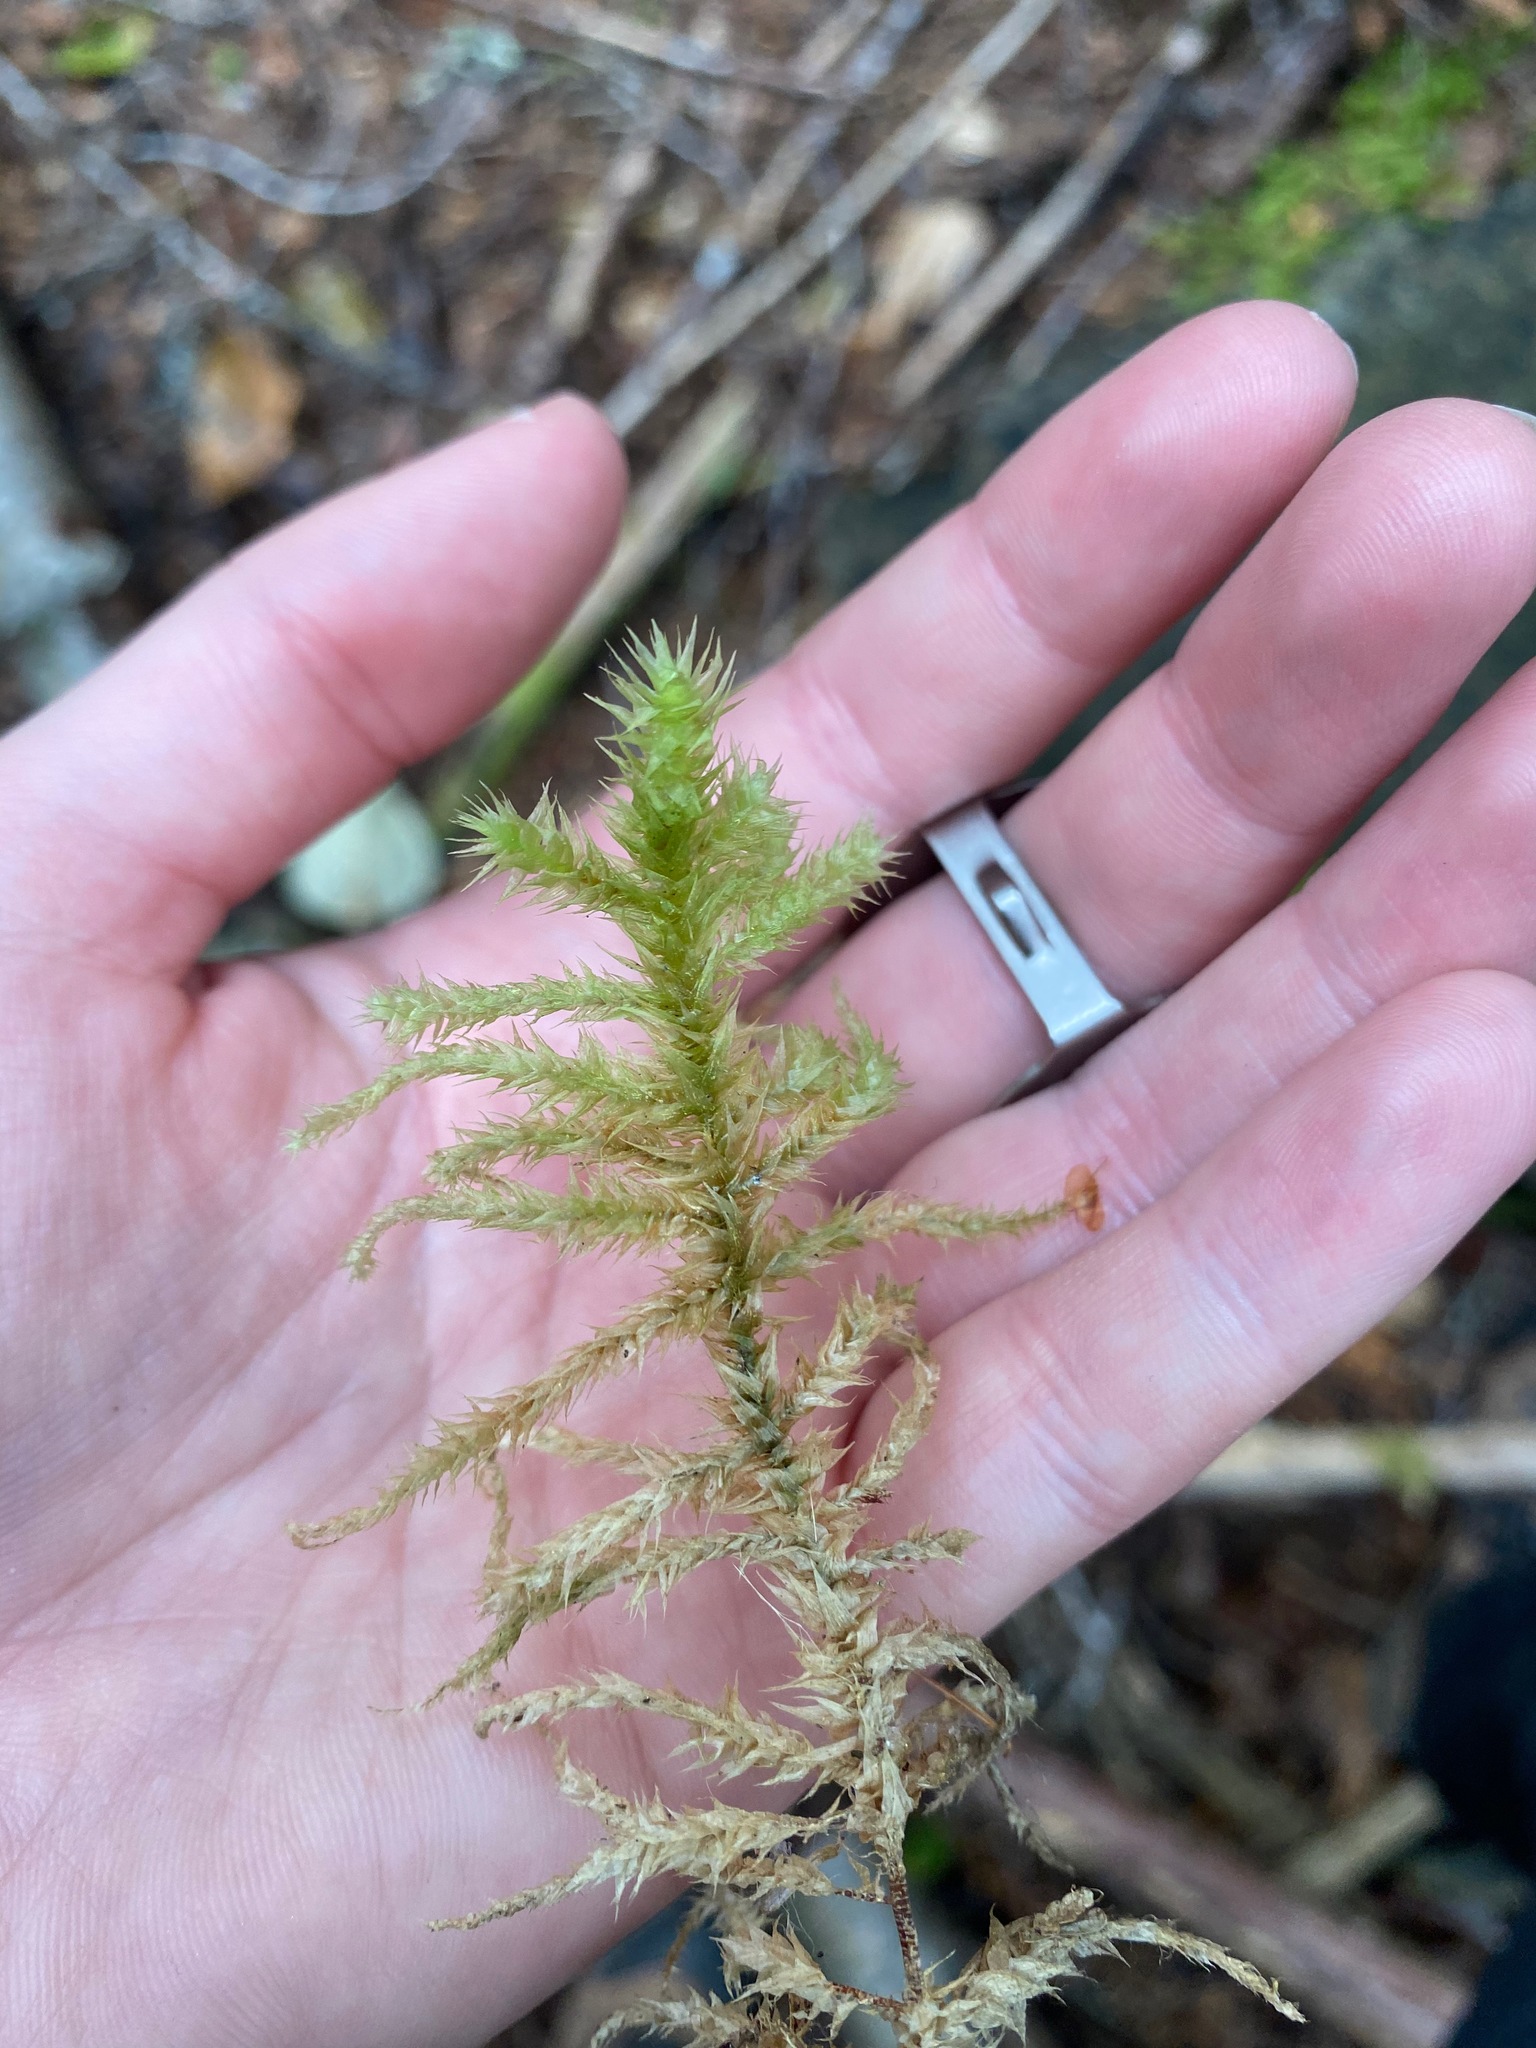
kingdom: Plantae
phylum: Bryophyta
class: Bryopsida
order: Hypnales
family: Hylocomiaceae
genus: Hylocomiadelphus
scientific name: Hylocomiadelphus triquetrus
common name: Rough goose neck moss
